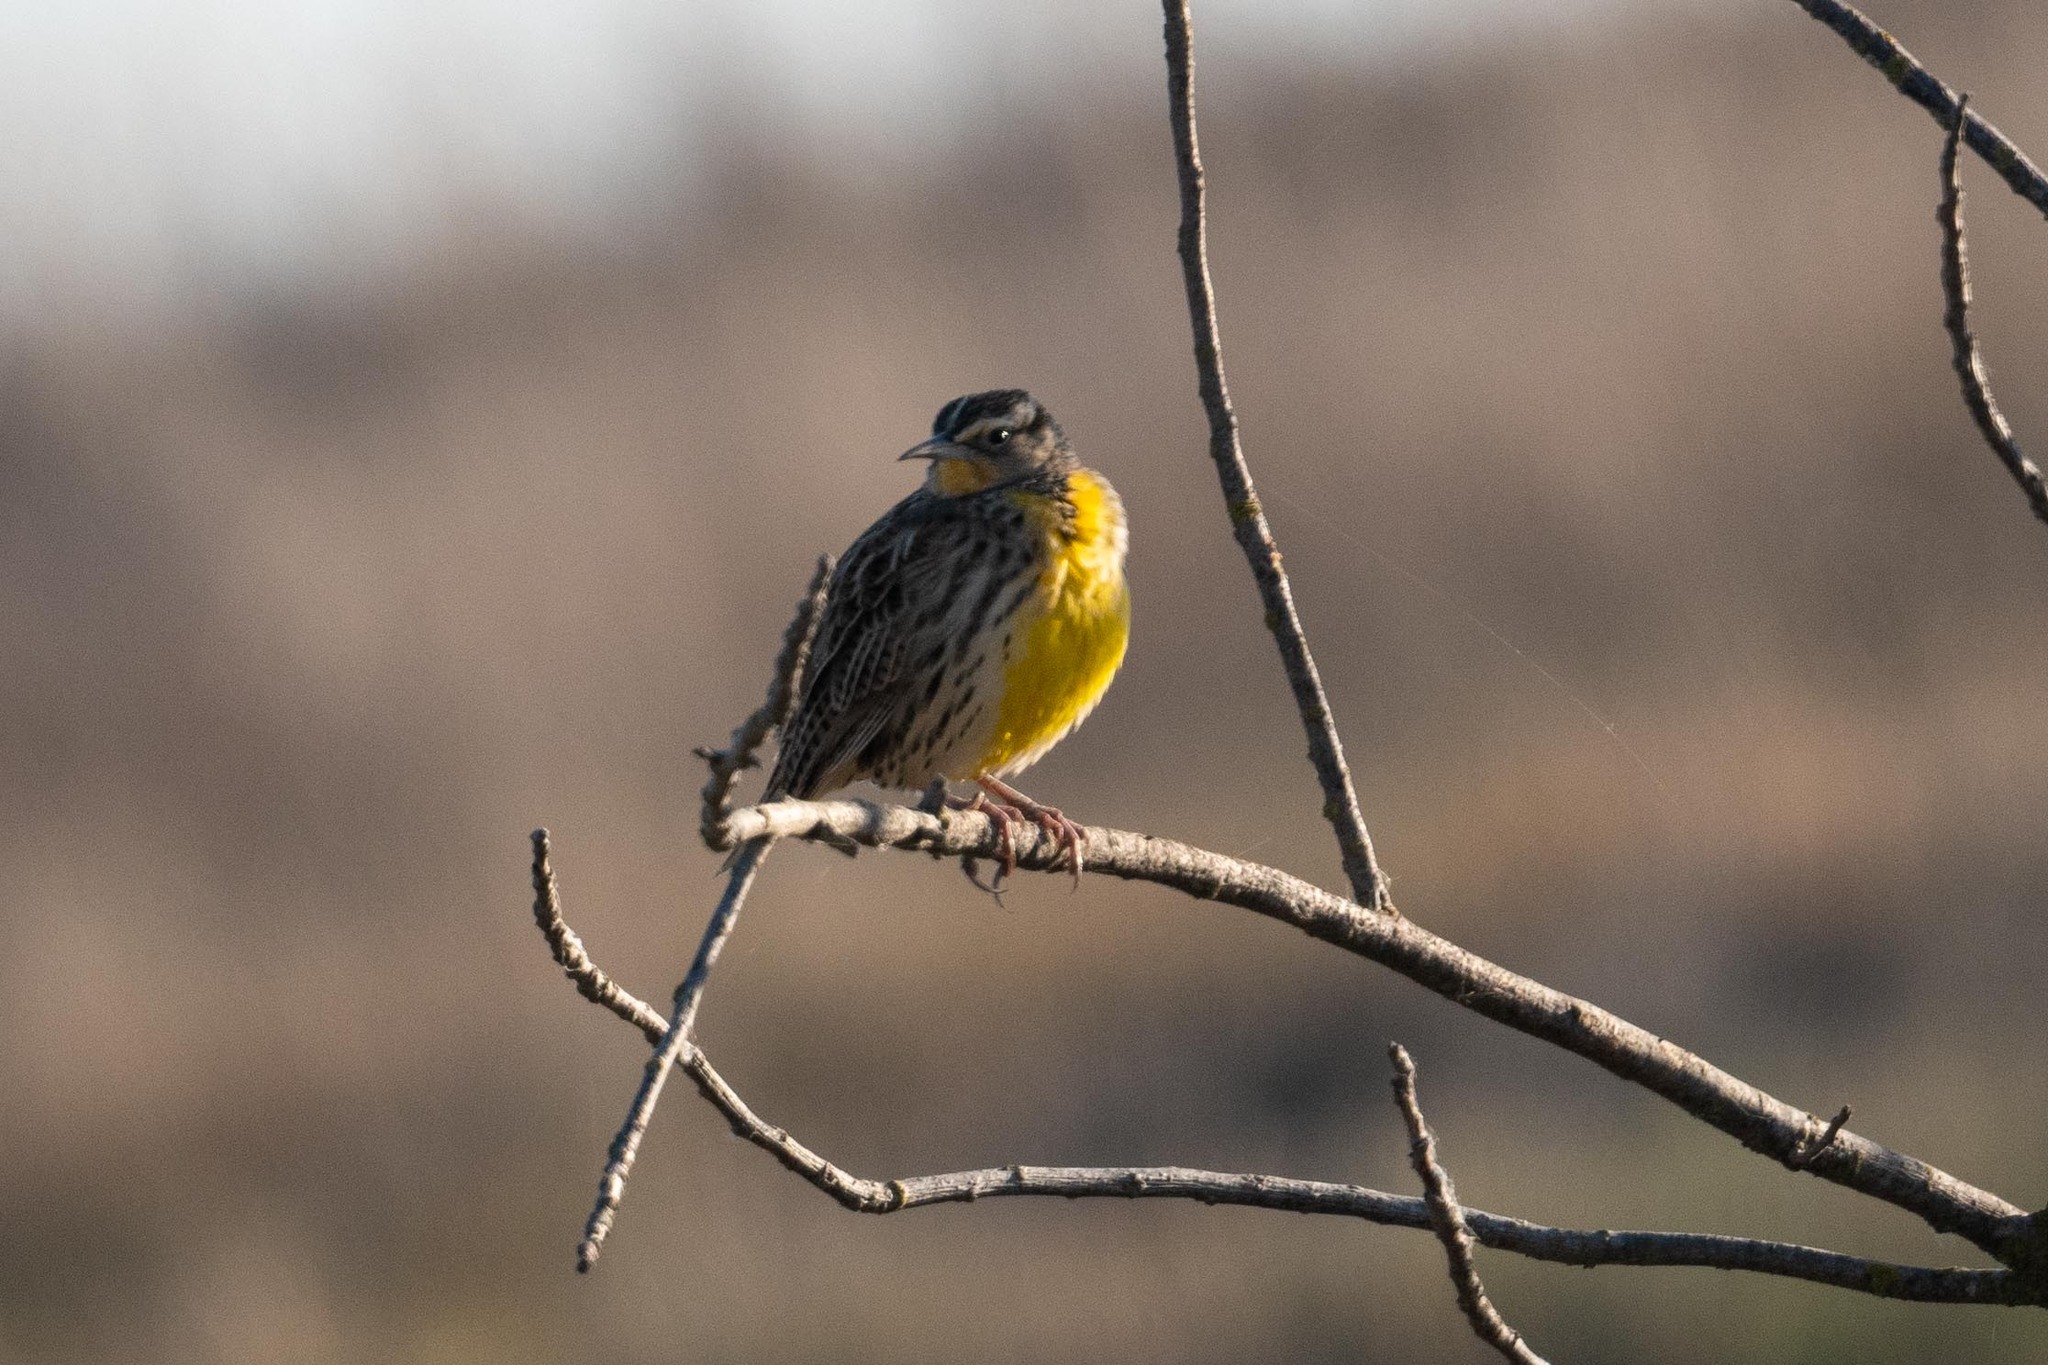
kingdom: Animalia
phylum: Chordata
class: Aves
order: Passeriformes
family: Icteridae
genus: Sturnella
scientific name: Sturnella neglecta
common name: Western meadowlark
